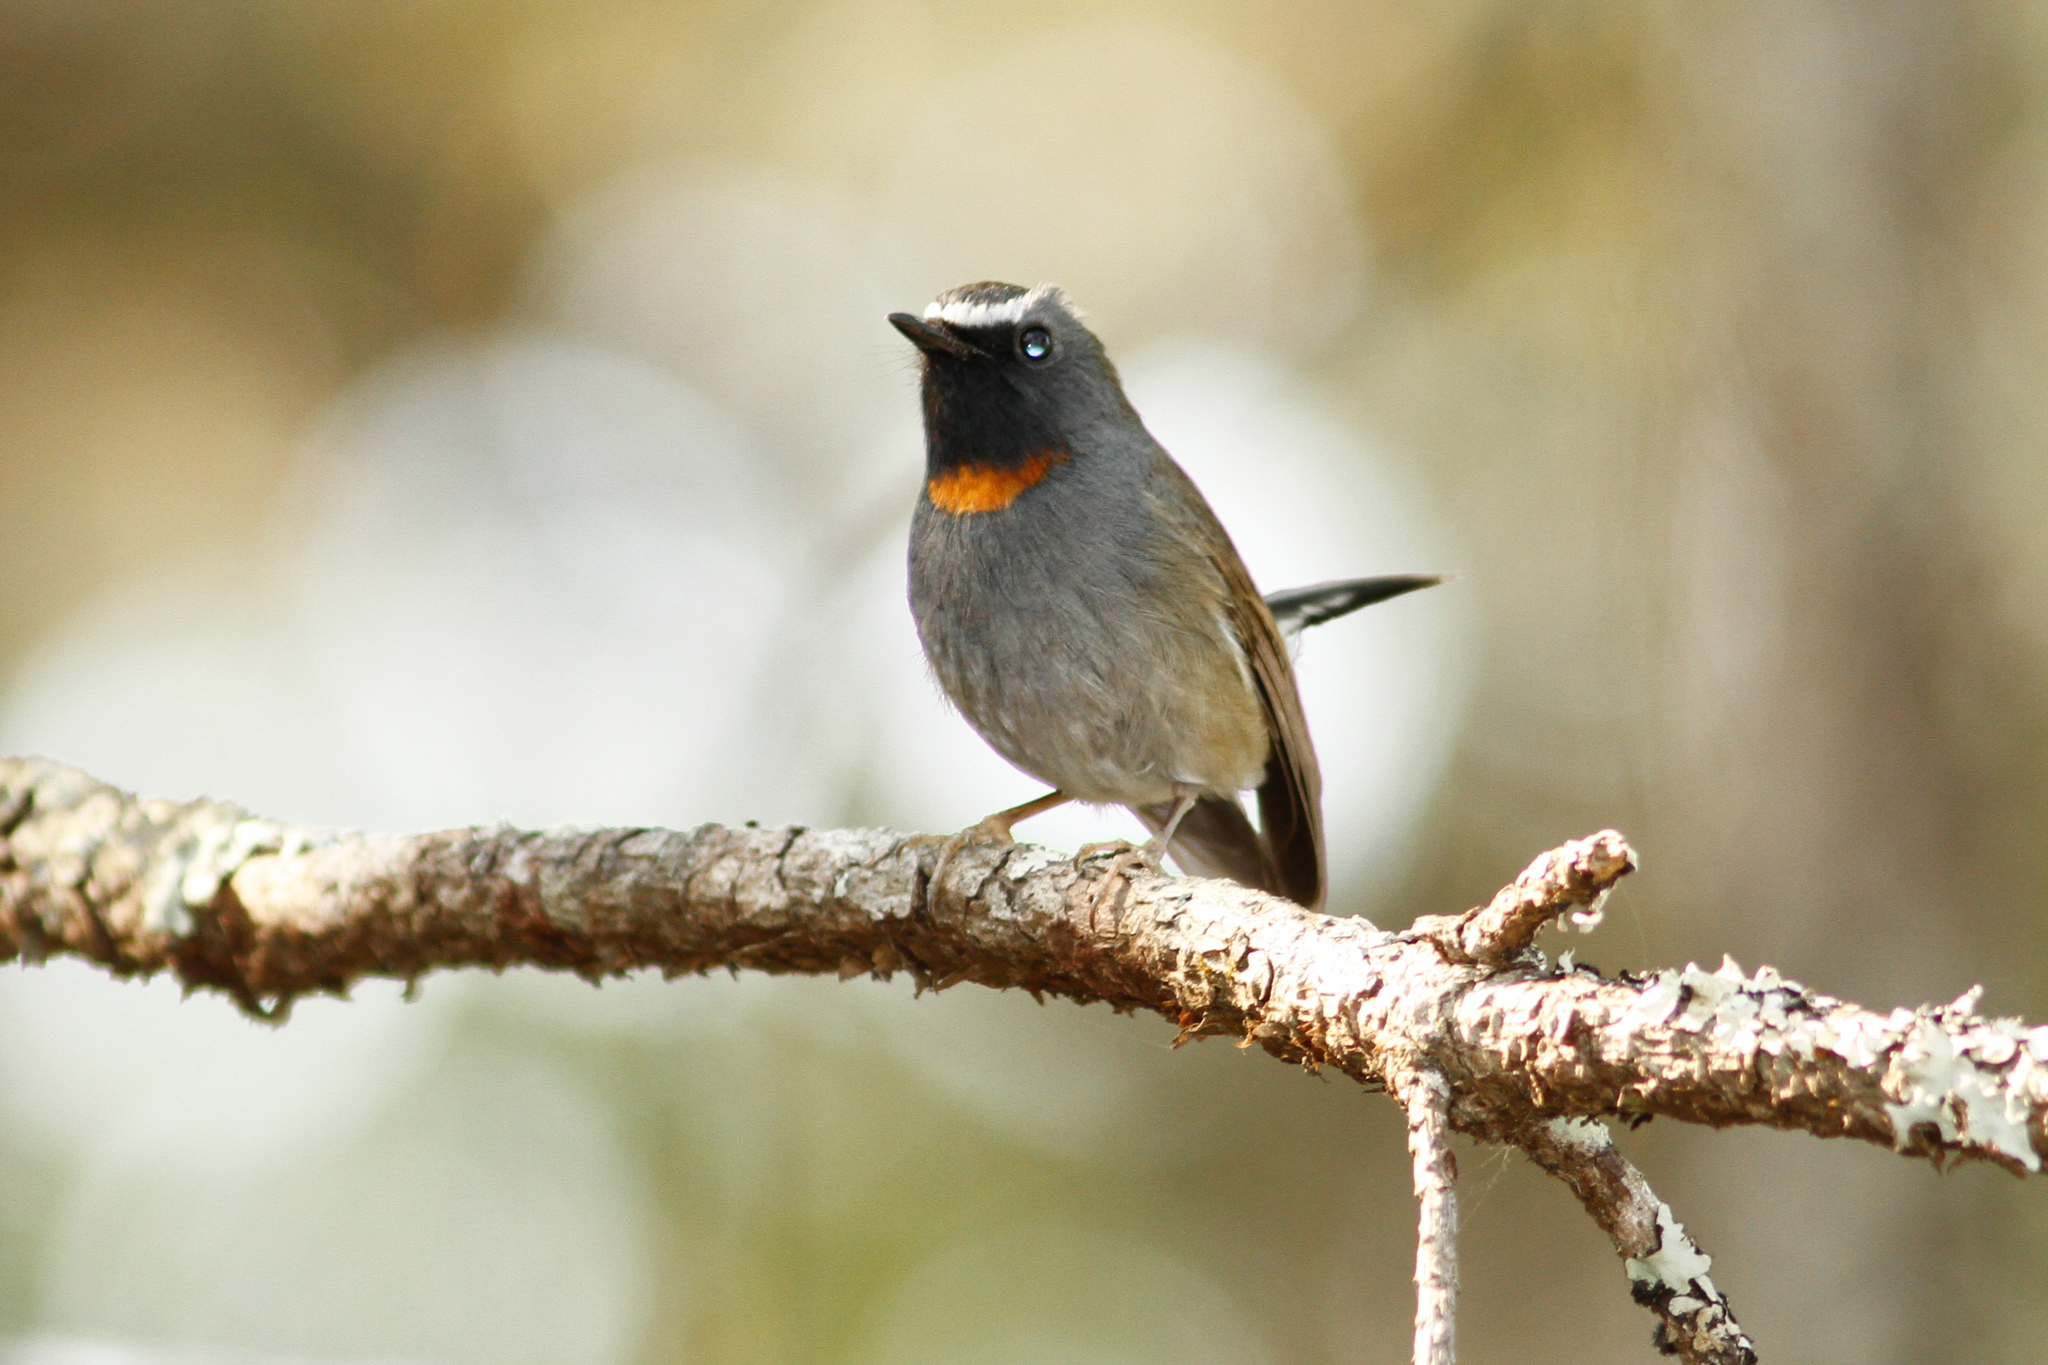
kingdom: Animalia
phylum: Chordata
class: Aves
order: Passeriformes
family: Muscicapidae
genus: Ficedula
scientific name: Ficedula strophiata
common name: Rufous-gorgeted flycatcher
